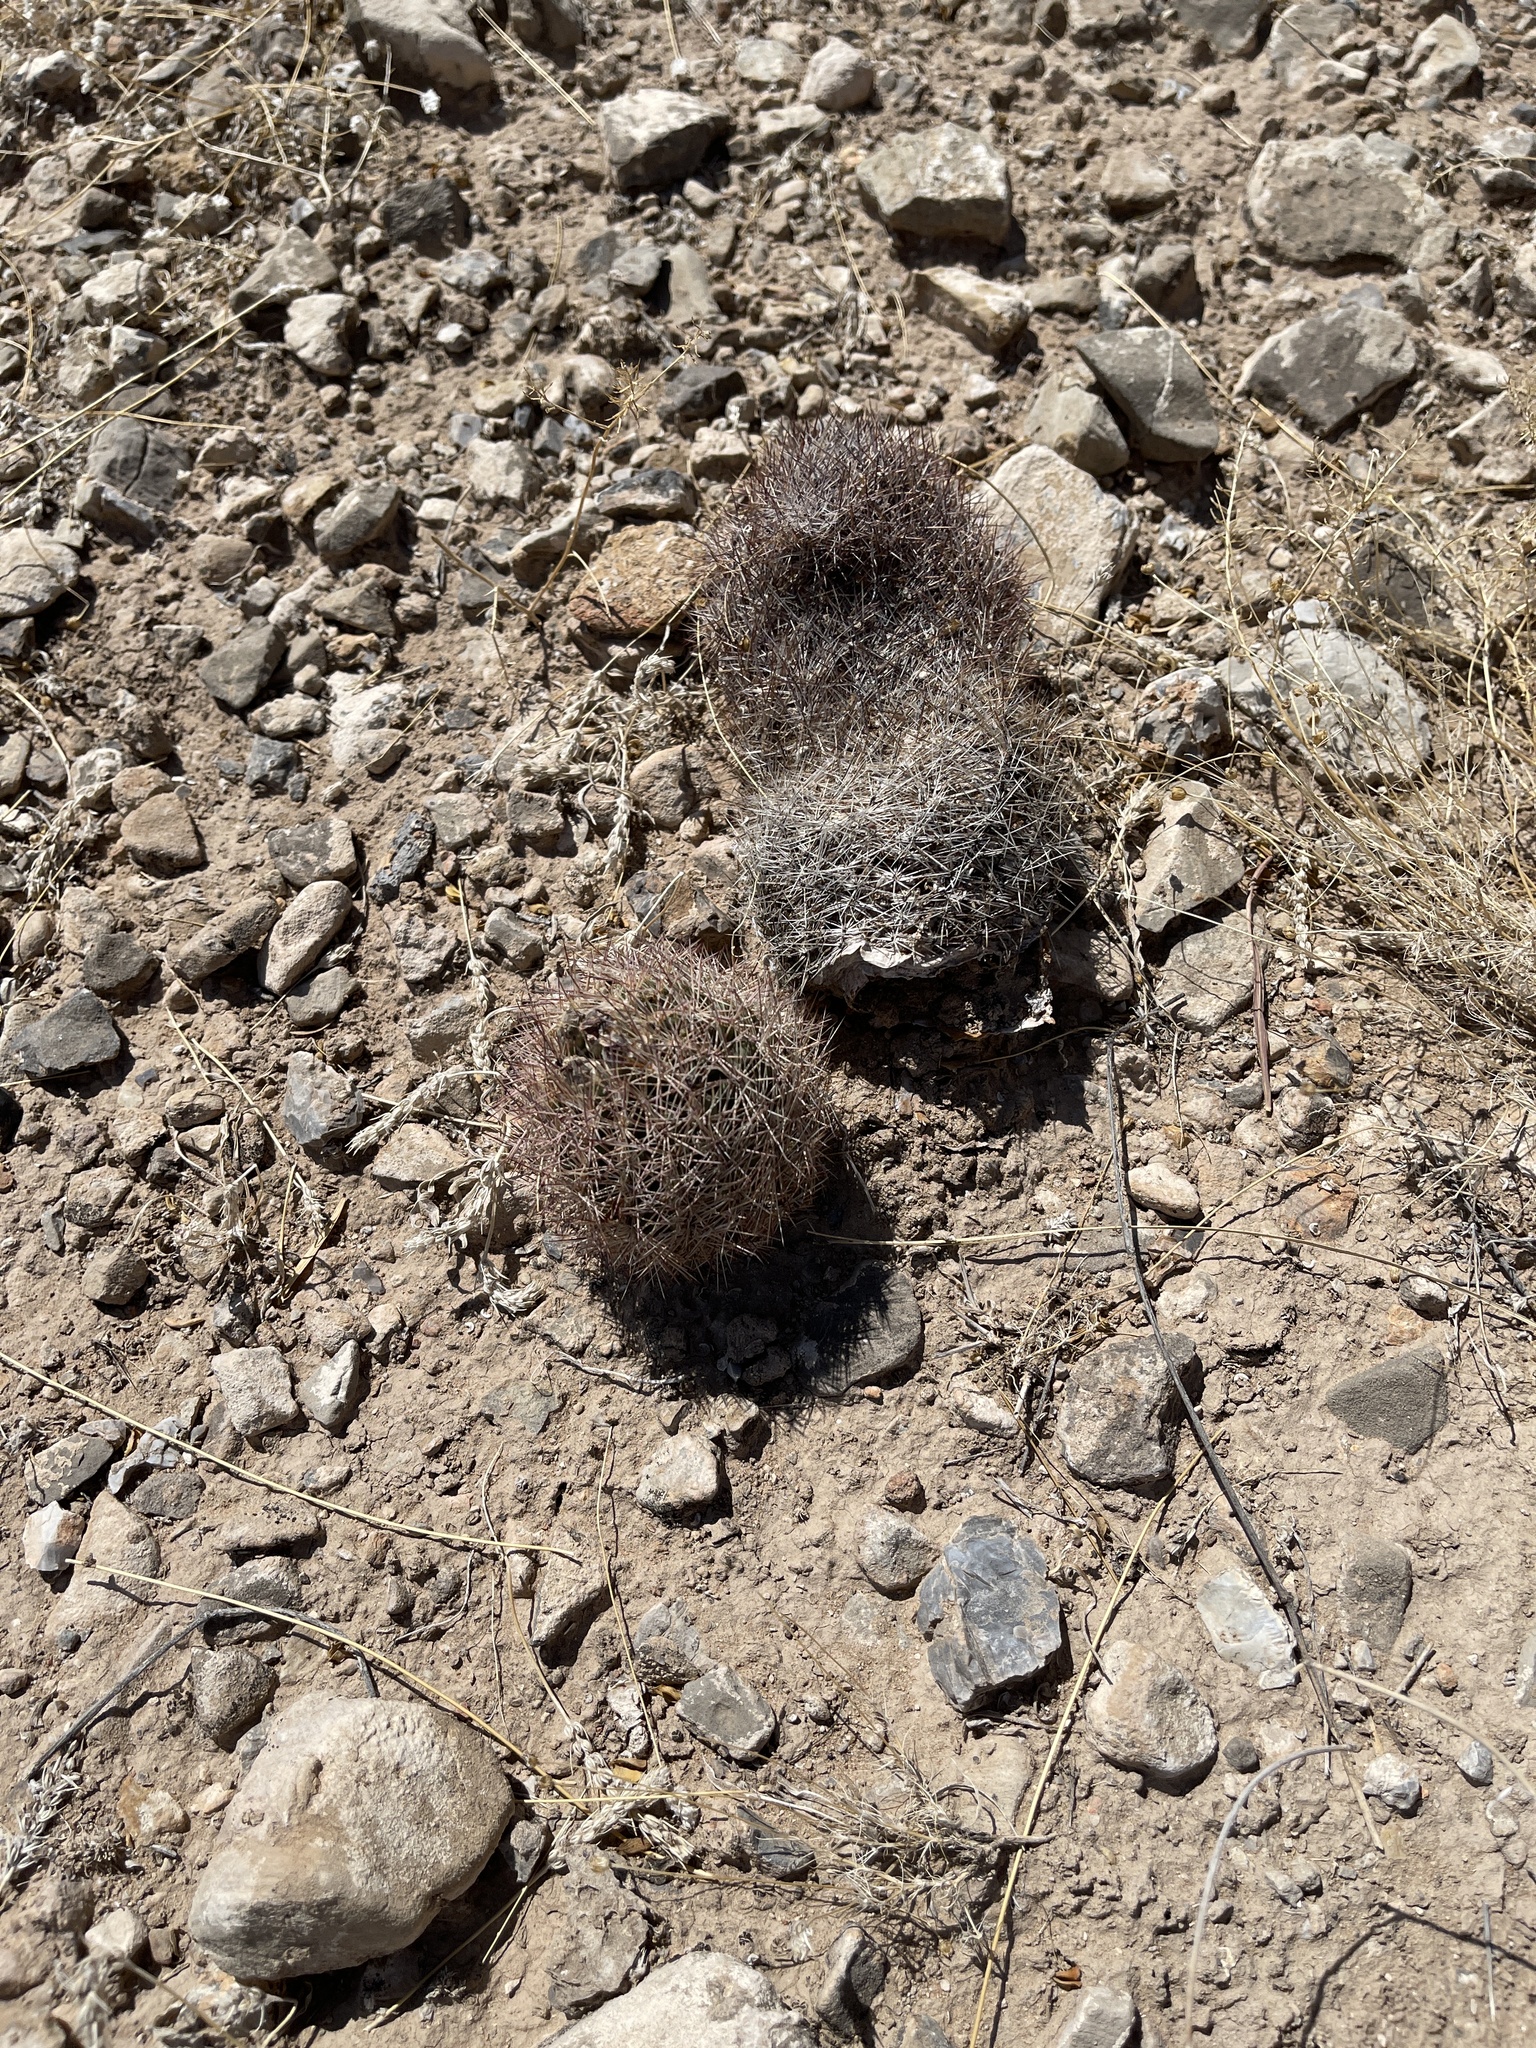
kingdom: Plantae
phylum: Tracheophyta
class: Magnoliopsida
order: Caryophyllales
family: Cactaceae
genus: Sclerocactus
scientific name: Sclerocactus intertextus
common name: White fish-hook cactus
